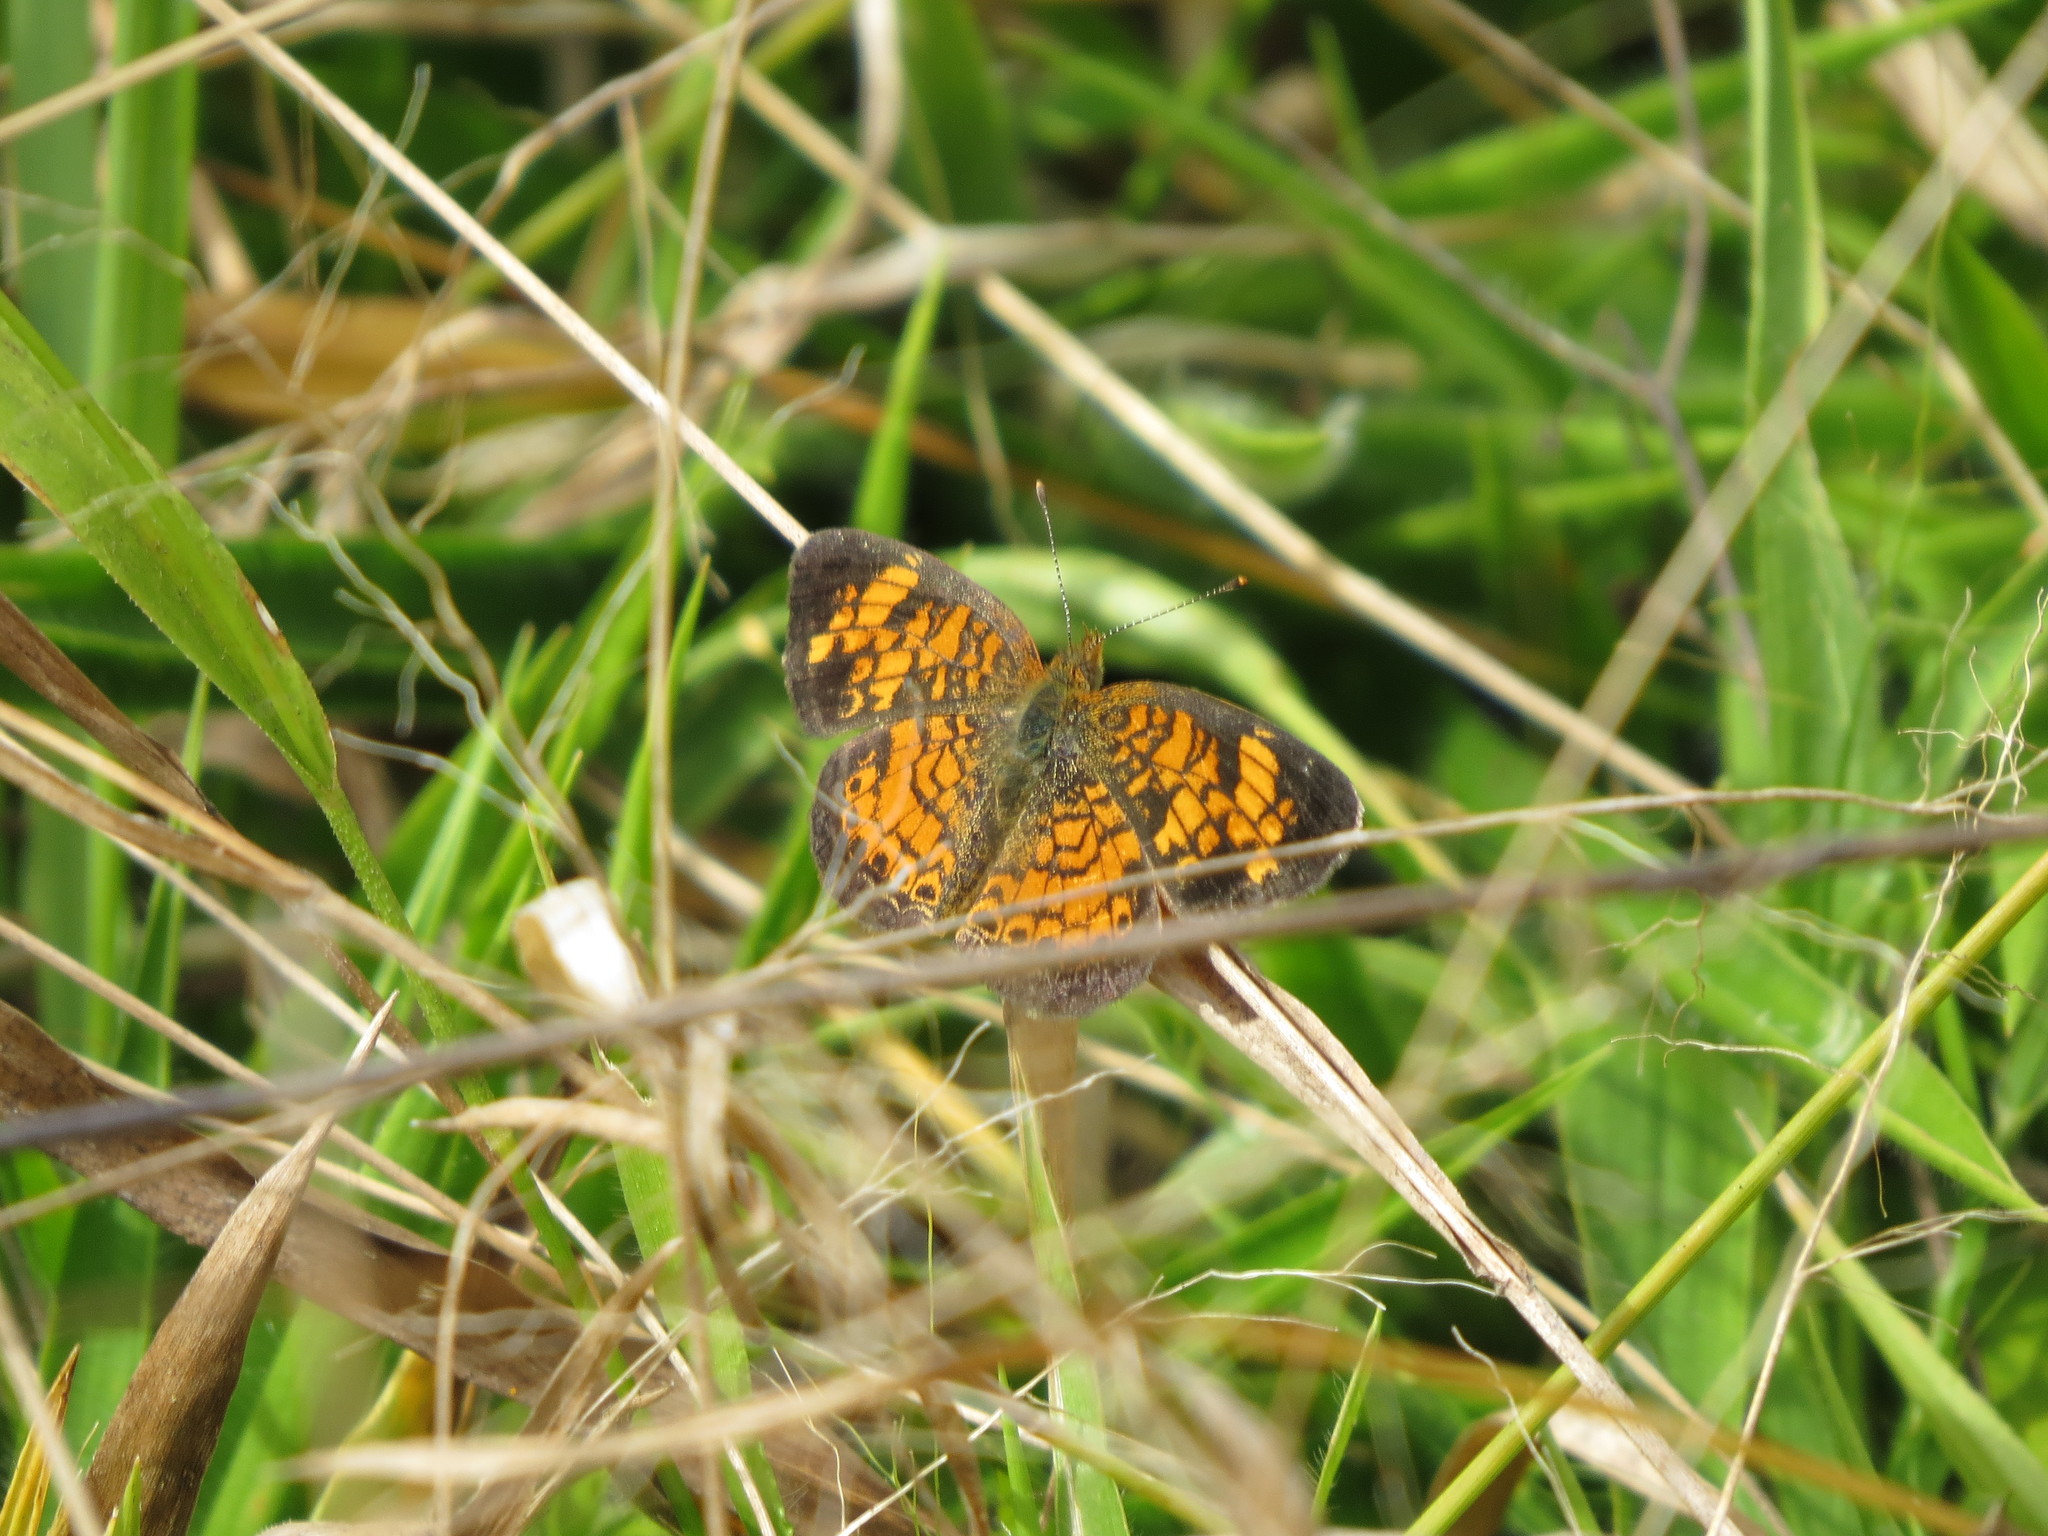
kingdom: Animalia
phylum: Arthropoda
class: Insecta
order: Lepidoptera
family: Nymphalidae
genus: Phyciodes
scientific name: Phyciodes tharos
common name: Pearl crescent
